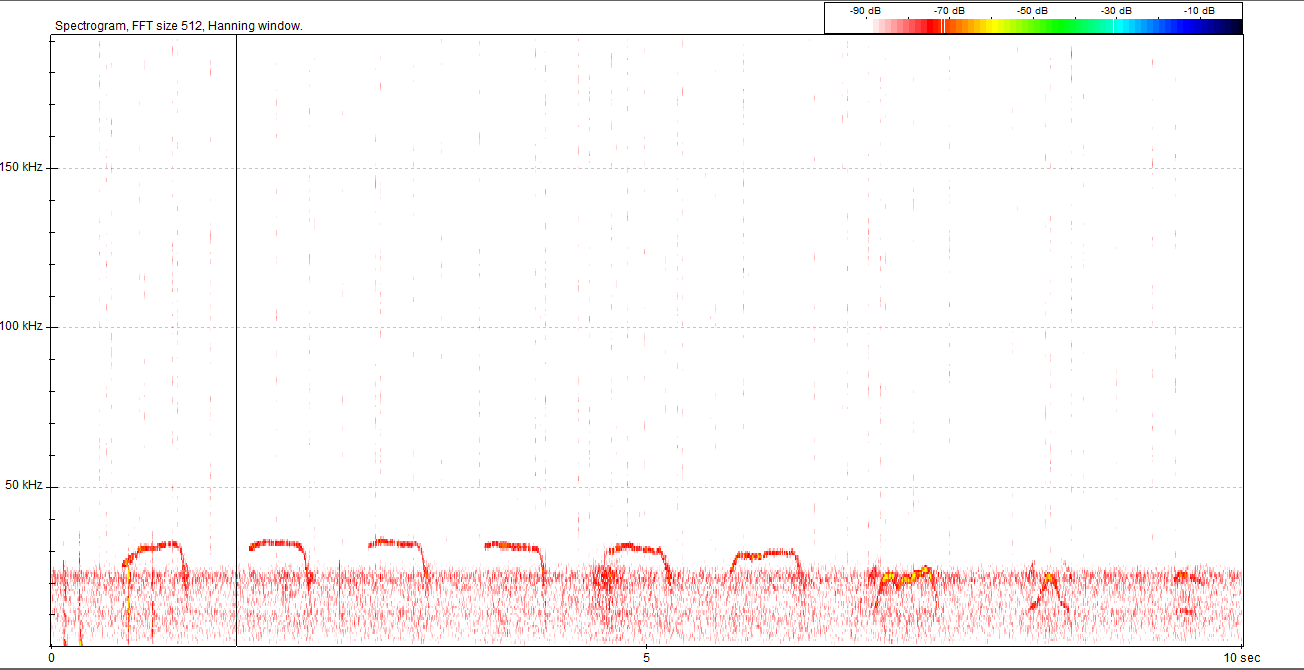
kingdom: Animalia
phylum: Chordata
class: Mammalia
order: Rodentia
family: Gliridae
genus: Muscardinus
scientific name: Muscardinus avellanarius
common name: Hazel dormouse
